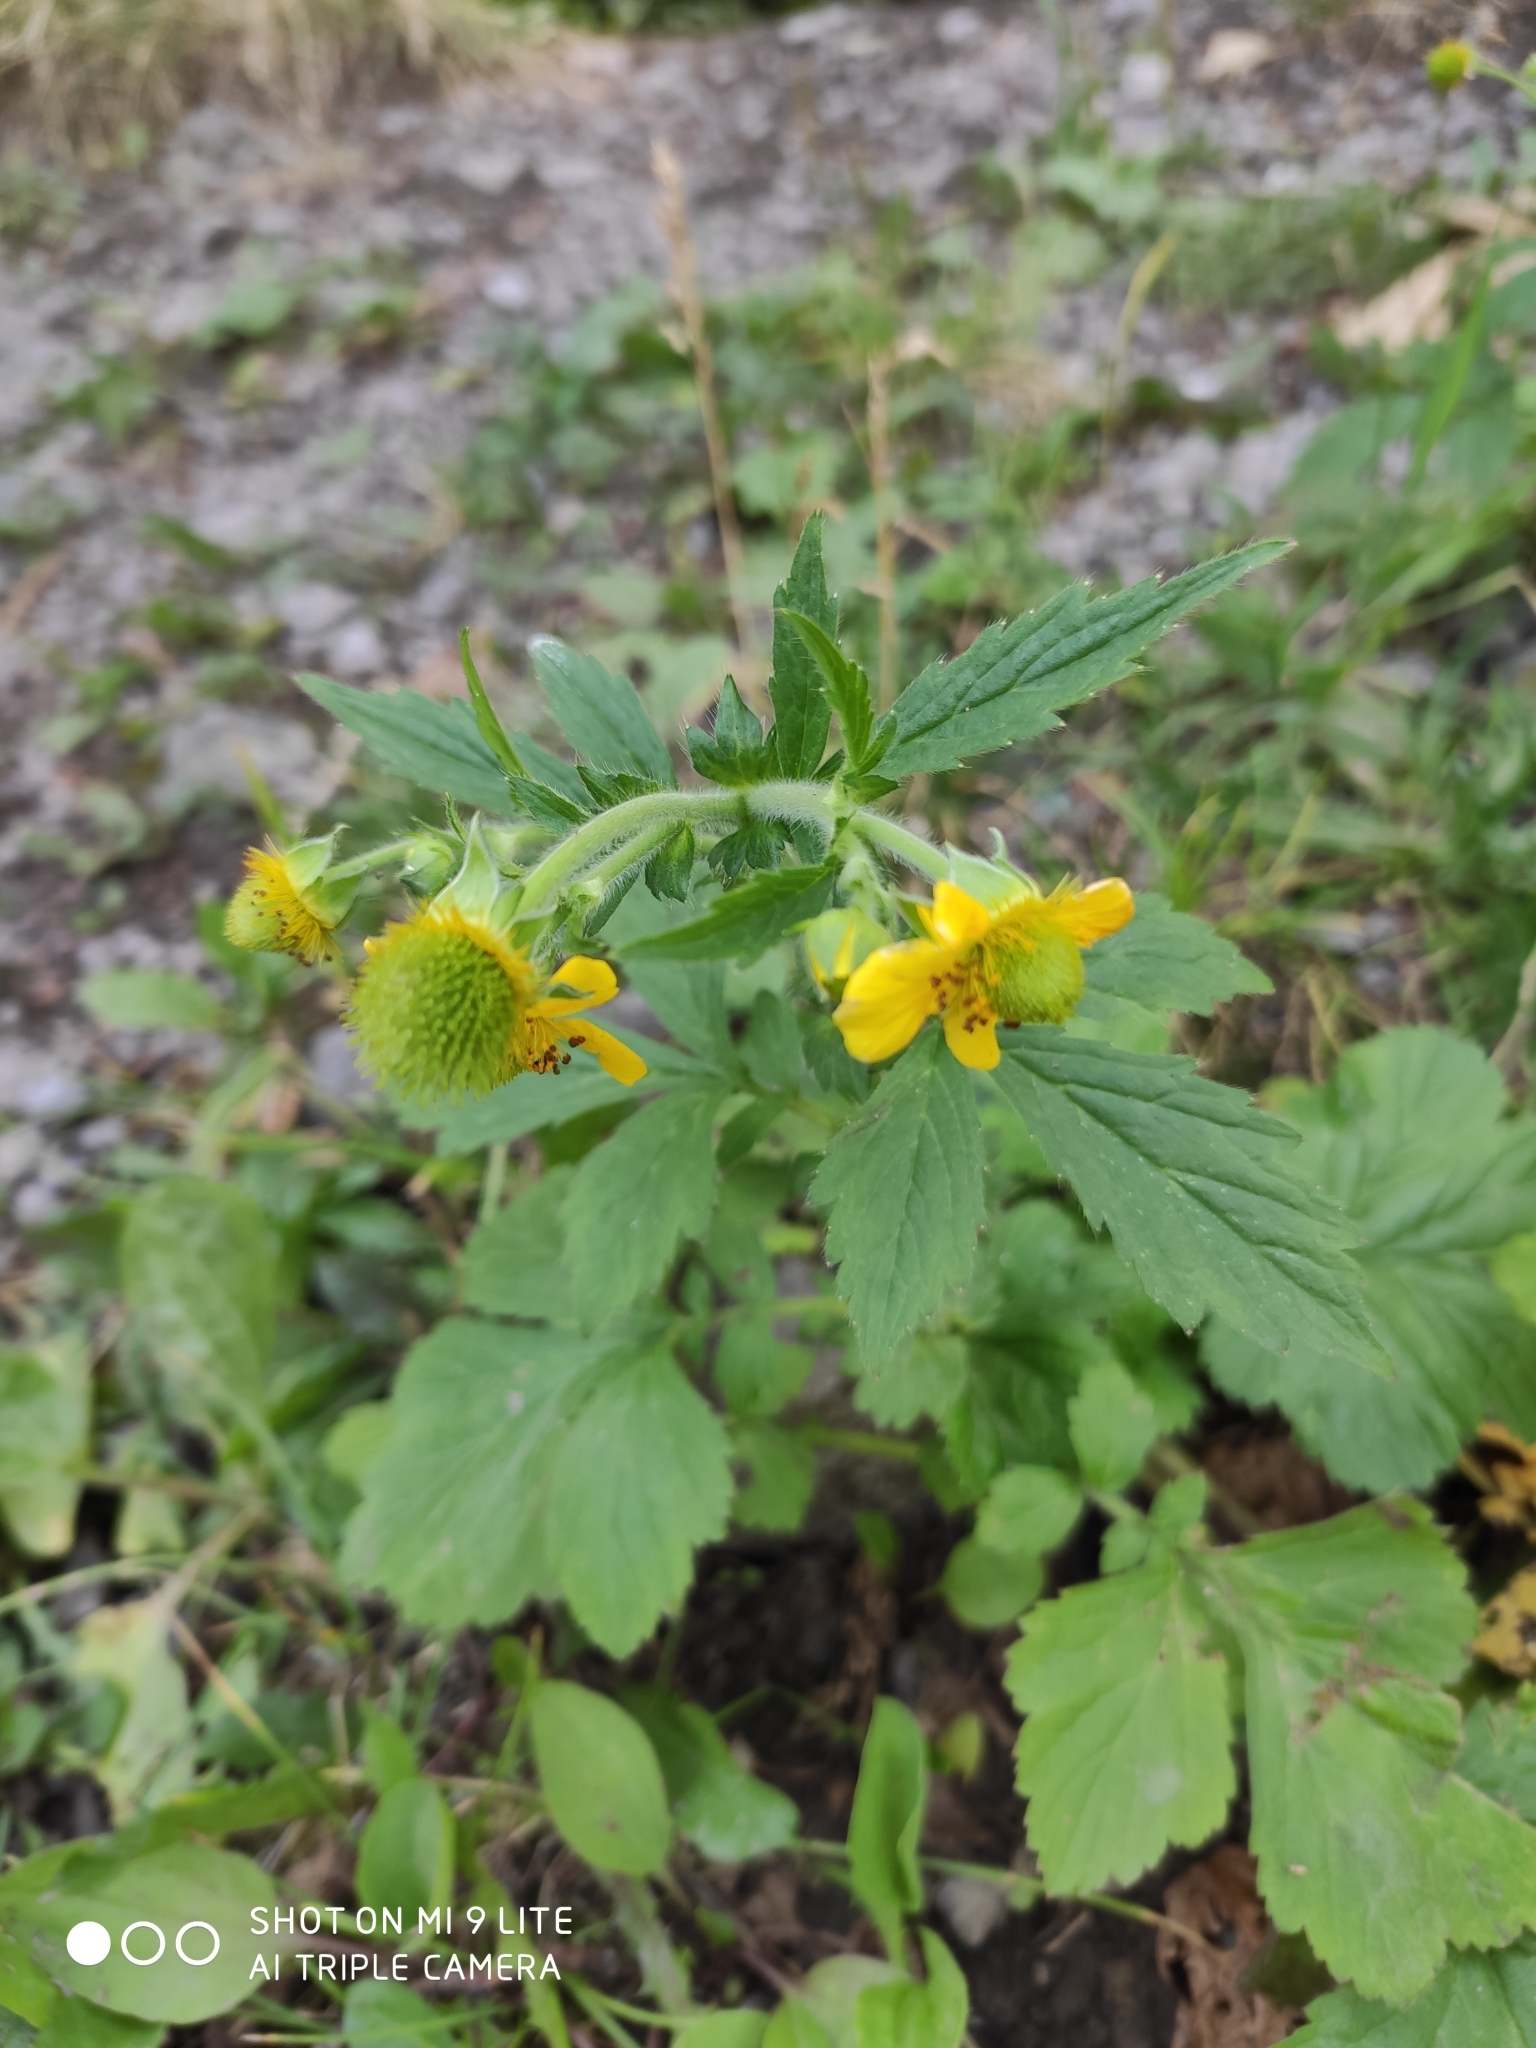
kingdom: Plantae
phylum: Tracheophyta
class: Magnoliopsida
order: Rosales
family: Rosaceae
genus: Geum
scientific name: Geum aleppicum
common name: Yellow avens
